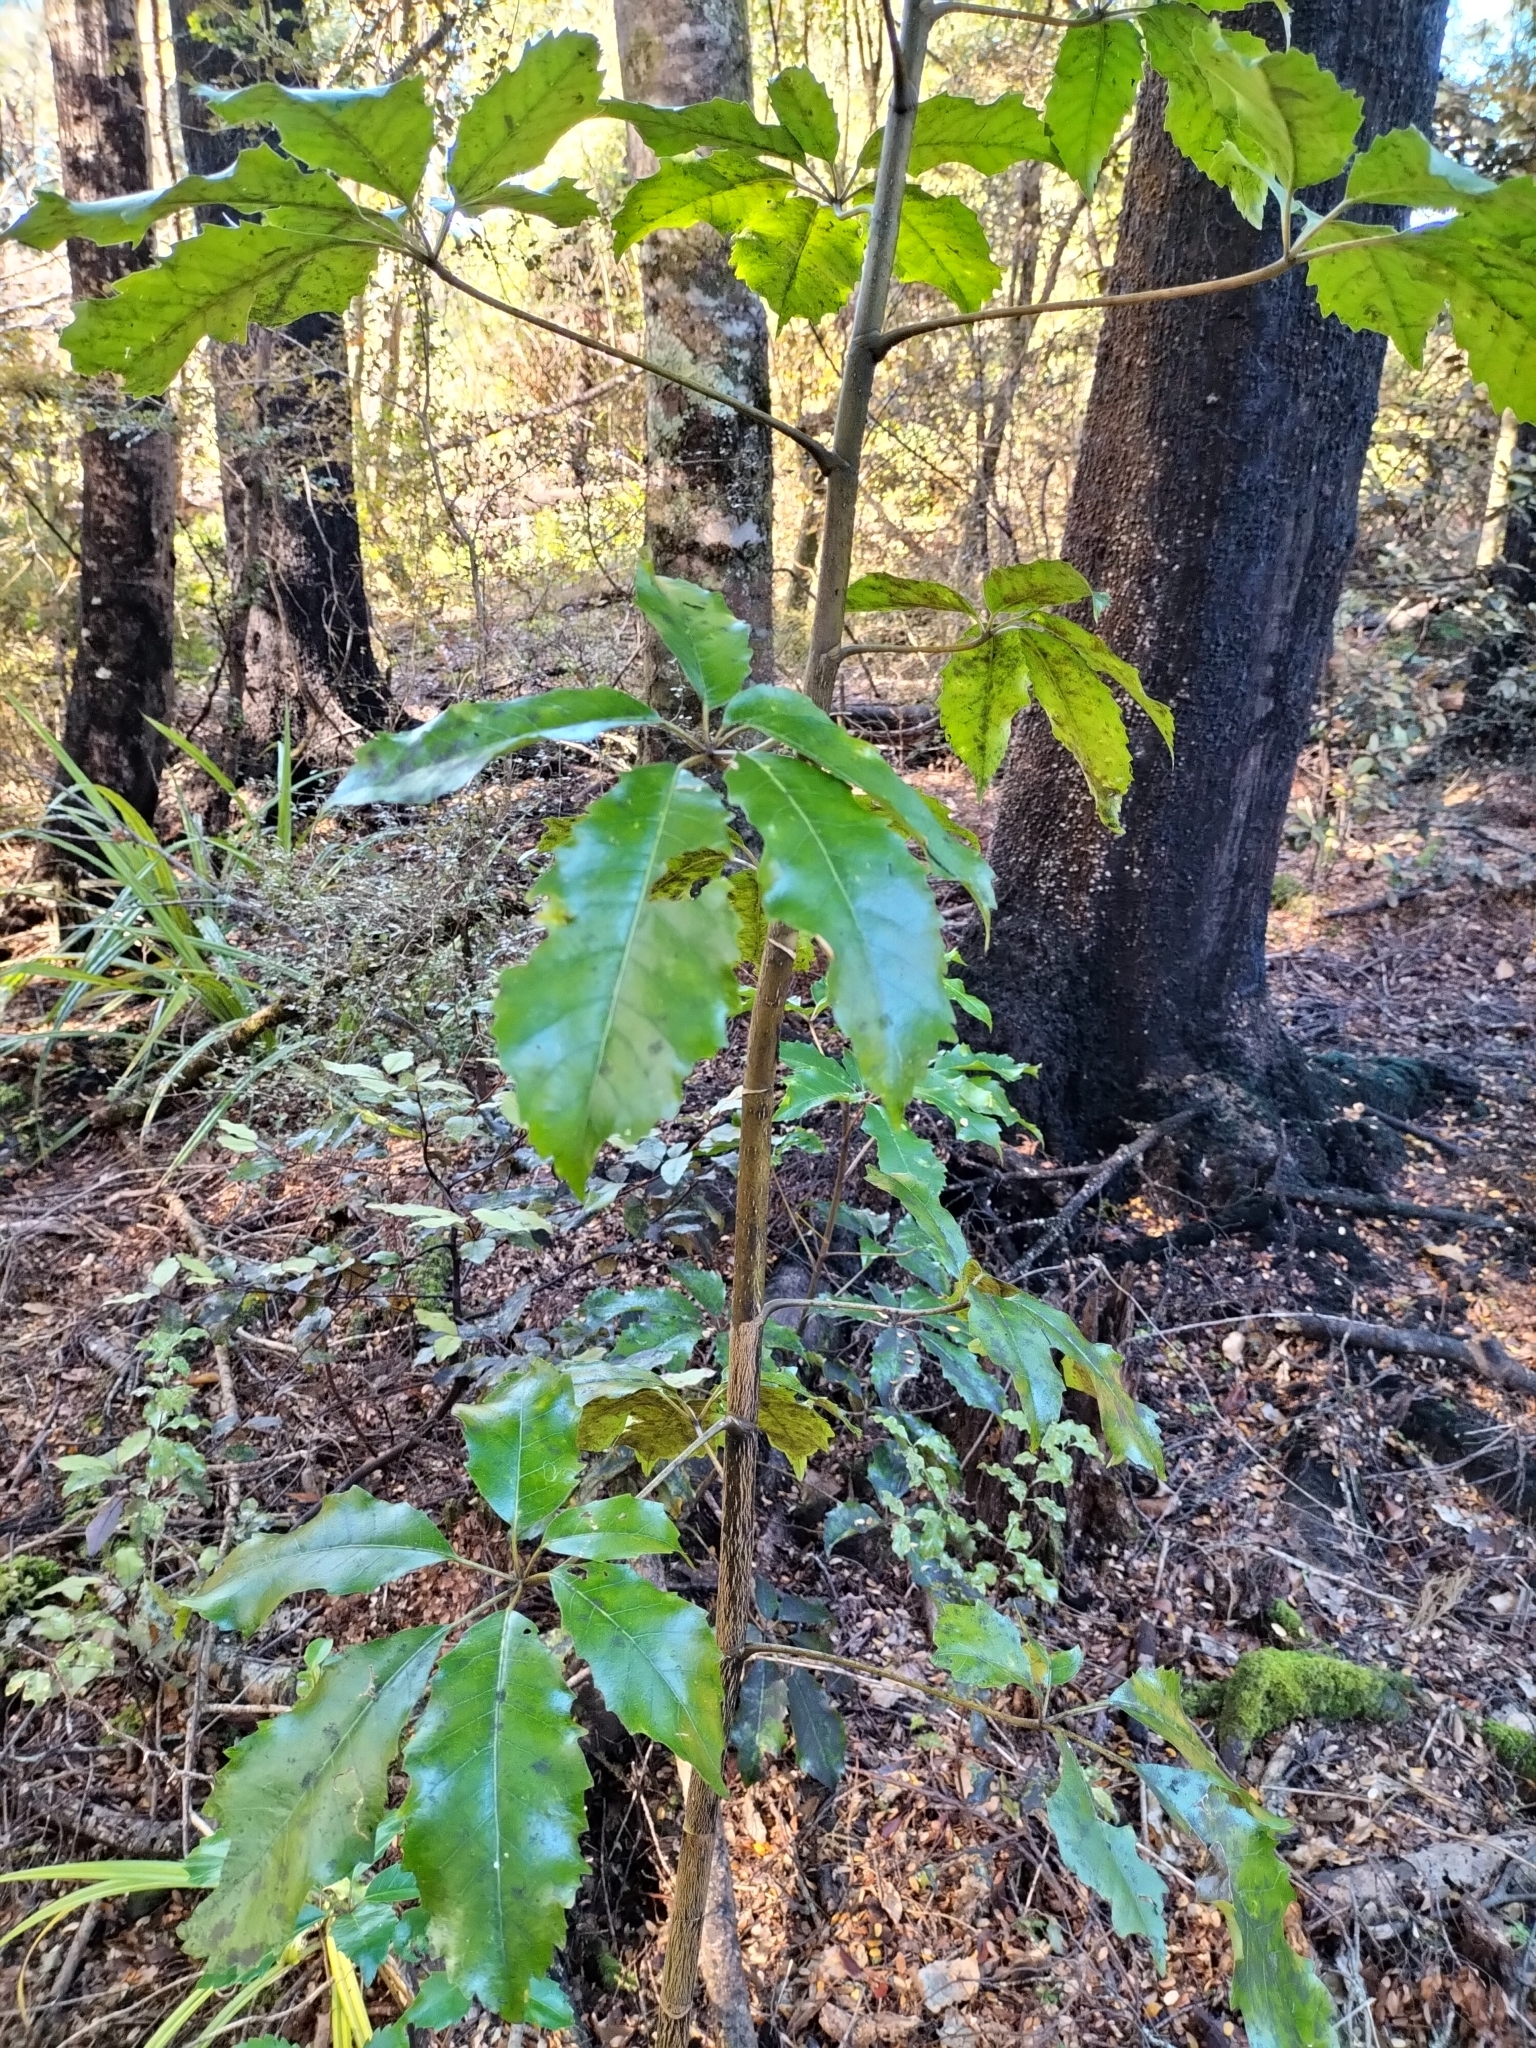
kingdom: Plantae
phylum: Tracheophyta
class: Magnoliopsida
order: Apiales
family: Araliaceae
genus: Neopanax
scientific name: Neopanax arboreus
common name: Five-fingers
